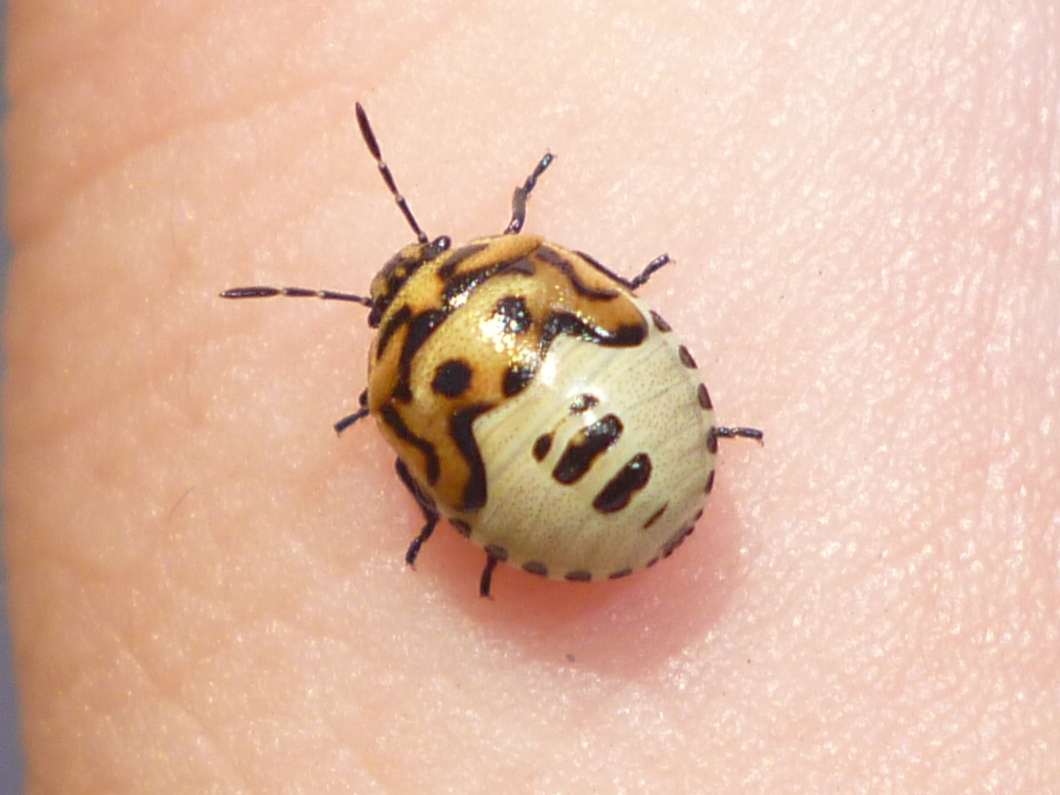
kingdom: Animalia
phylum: Arthropoda
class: Insecta
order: Hemiptera
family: Pentatomidae
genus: Cosmopepla
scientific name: Cosmopepla lintneriana
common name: Twice-stabbed stink bug
